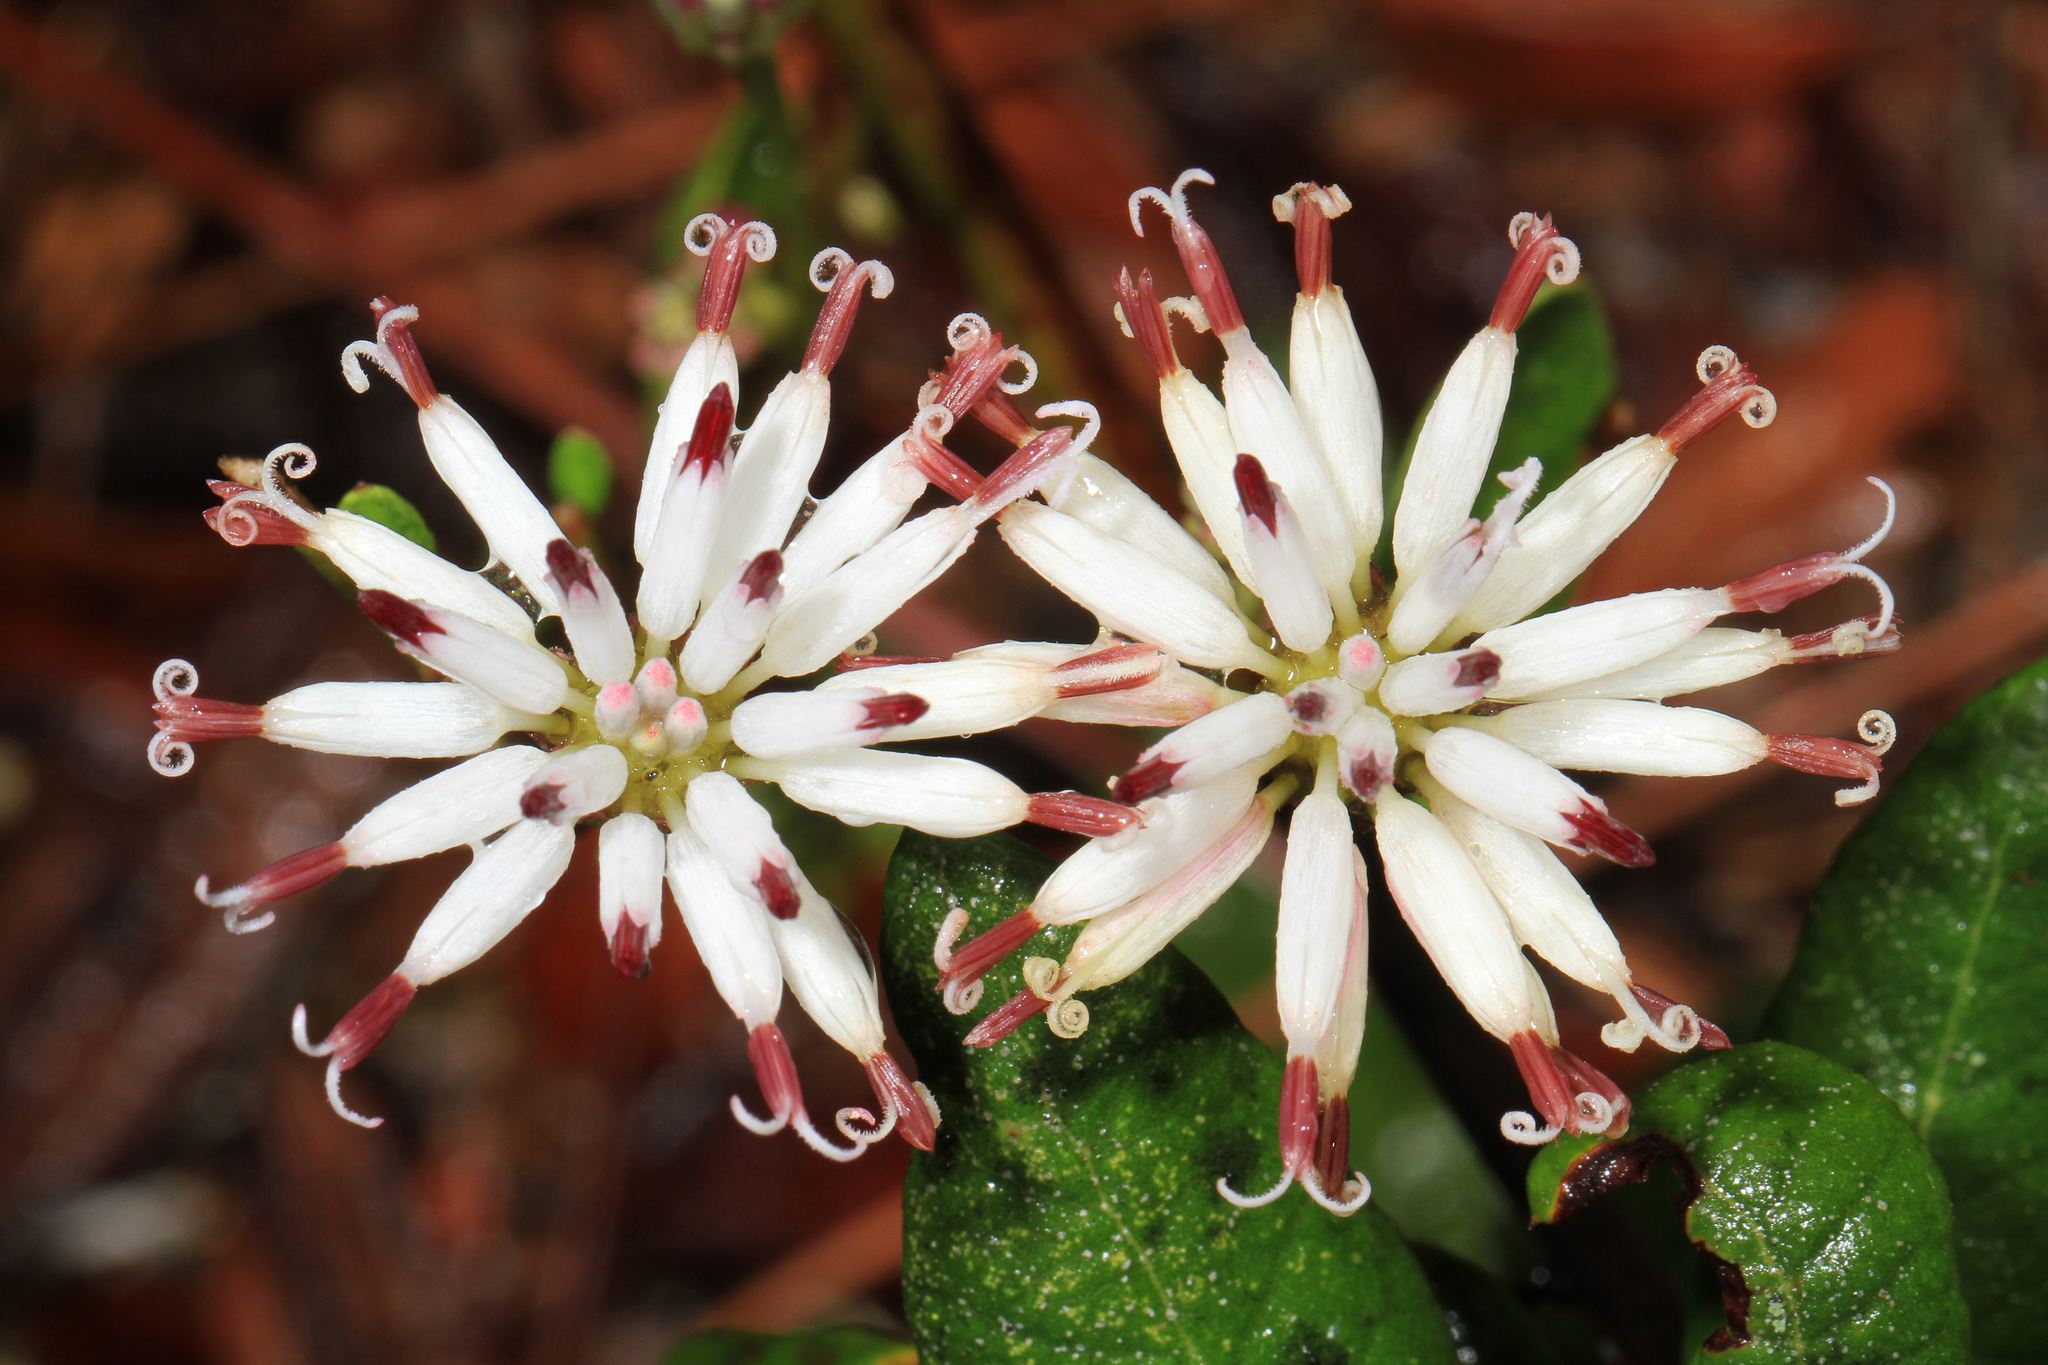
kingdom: Plantae
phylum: Tracheophyta
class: Magnoliopsida
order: Asterales
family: Asteraceae
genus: Palafoxia
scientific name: Palafoxia feayi
